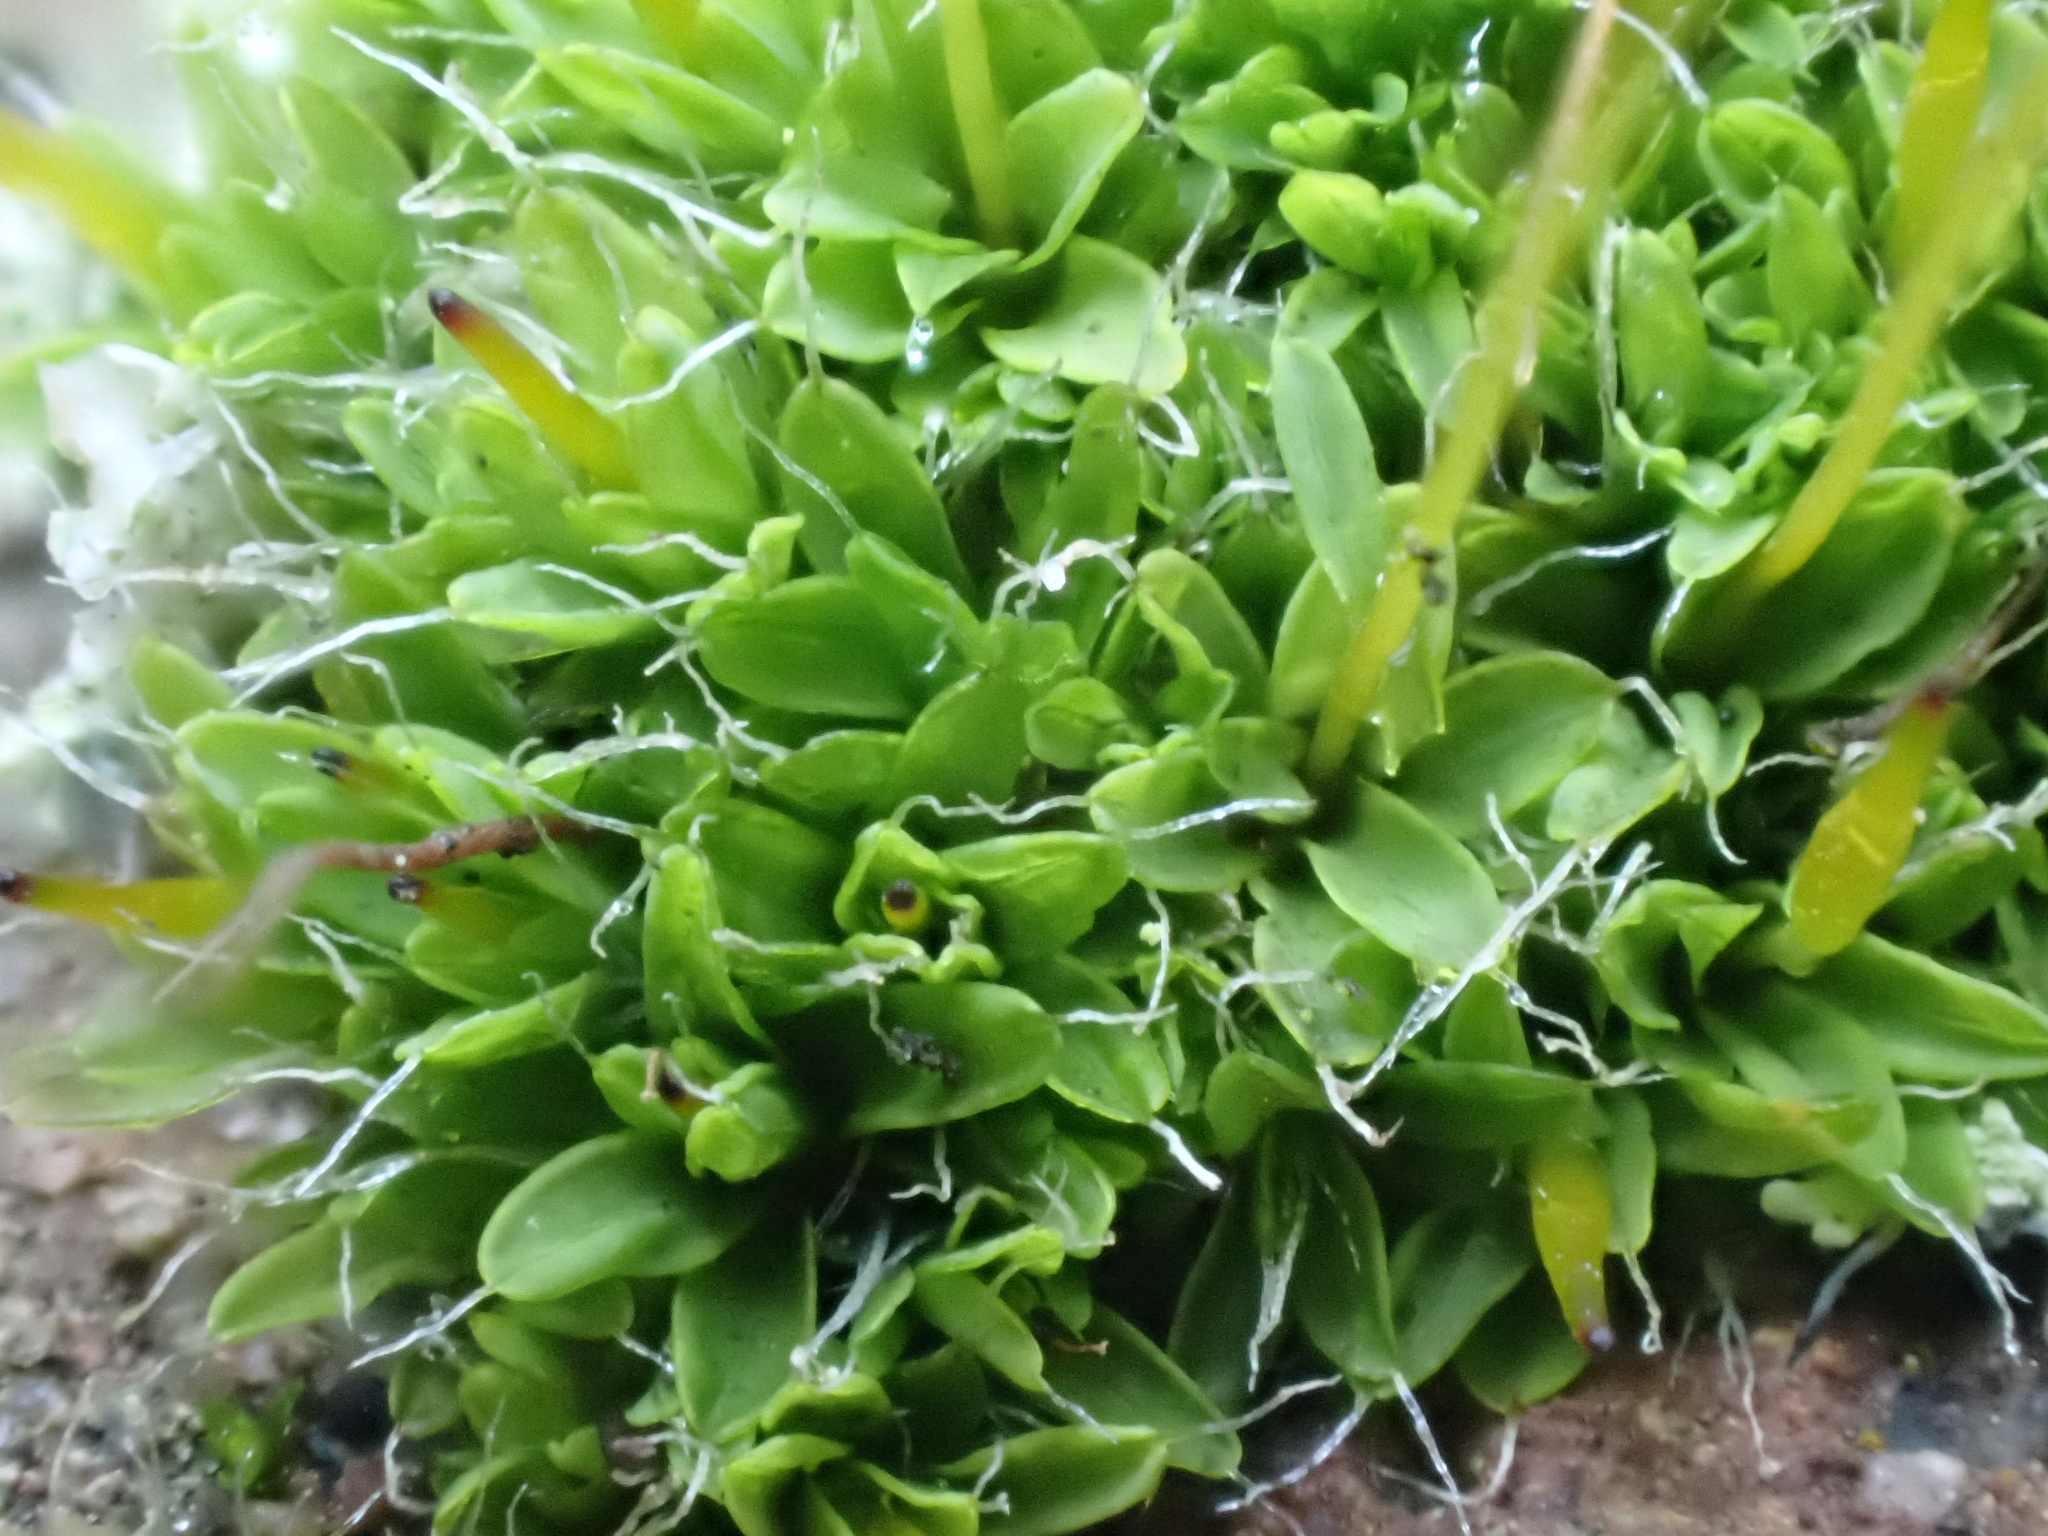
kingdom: Plantae
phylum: Bryophyta
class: Bryopsida
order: Pottiales
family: Pottiaceae
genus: Tortula
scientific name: Tortula muralis
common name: Wall screw-moss
